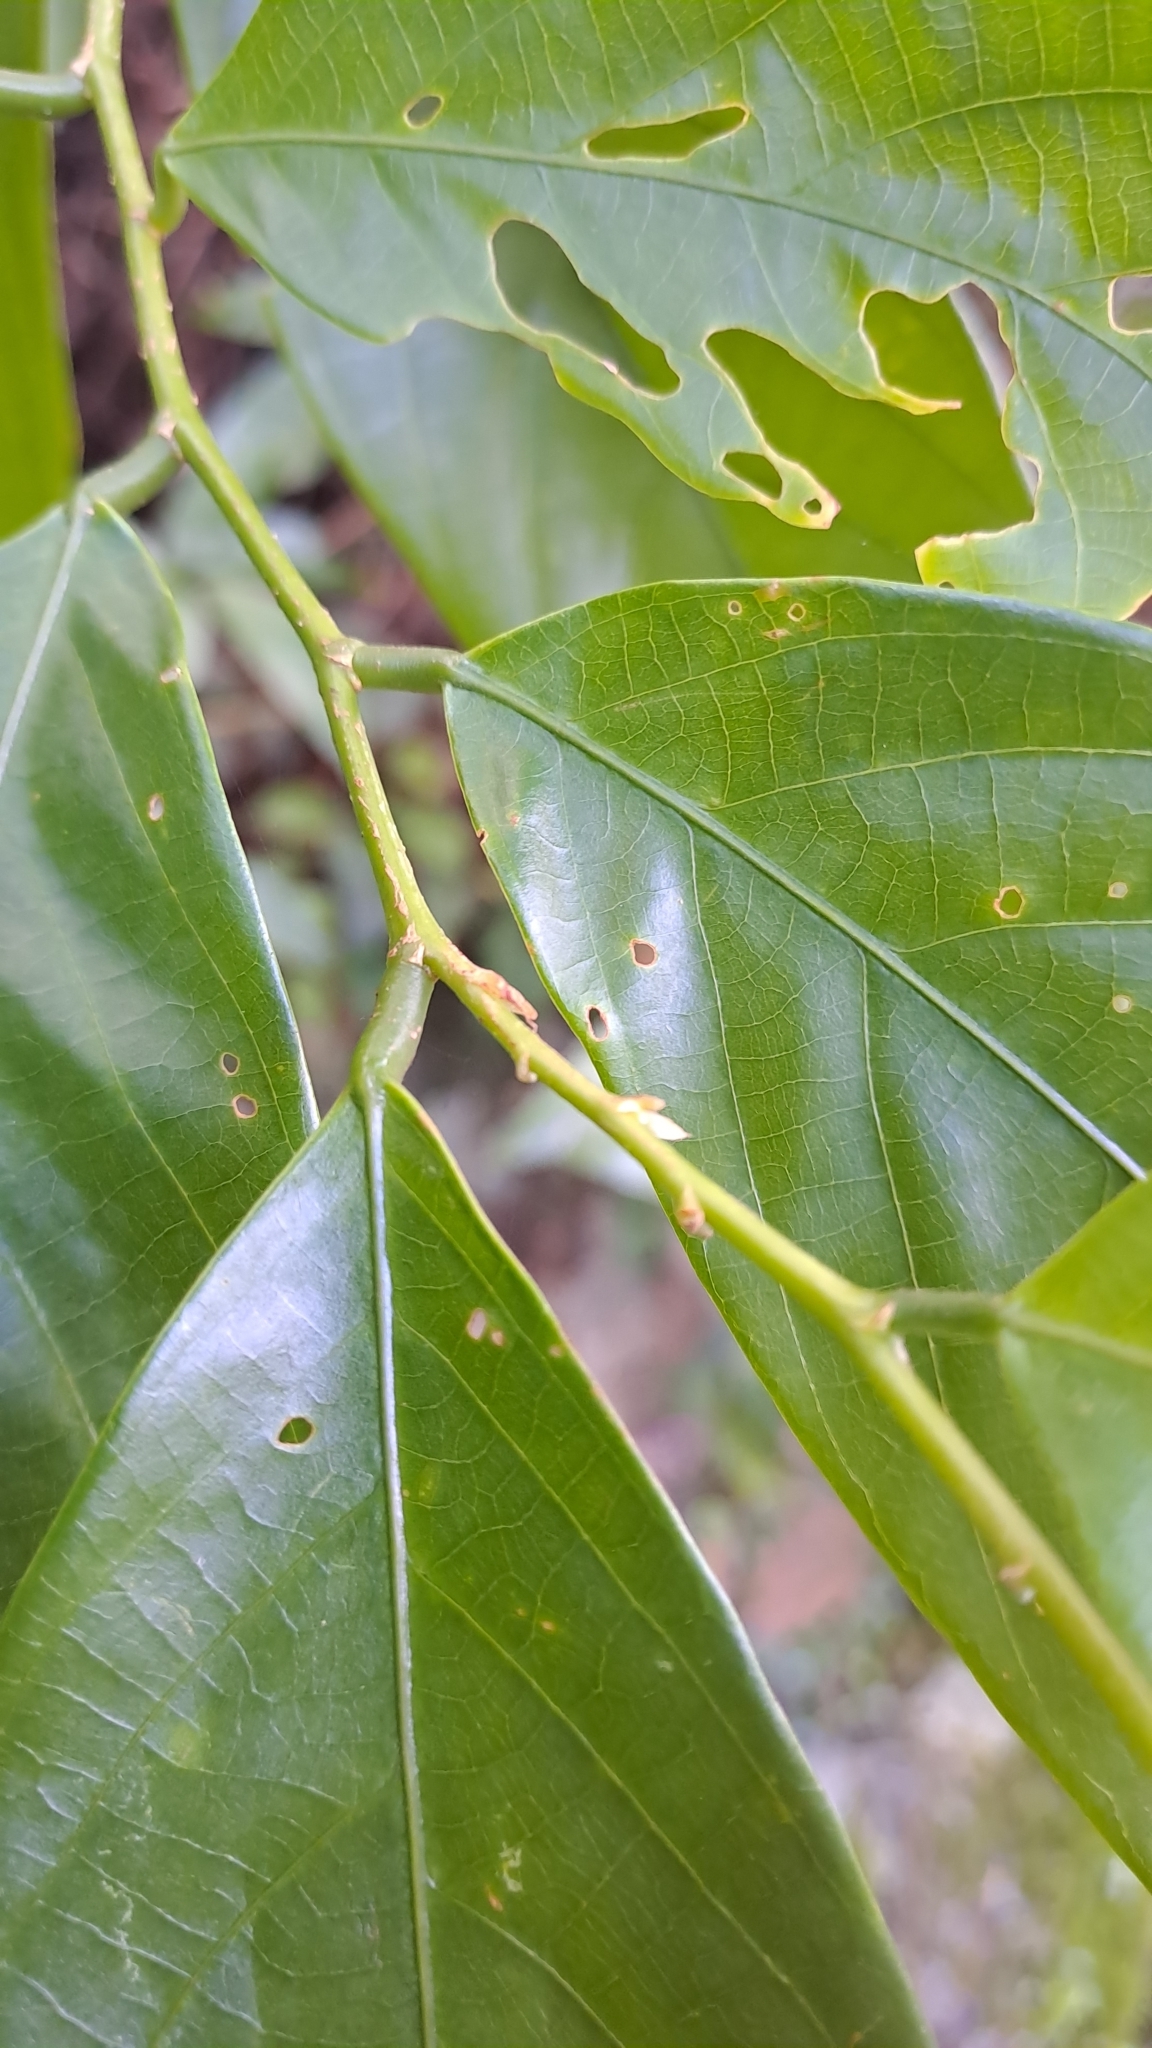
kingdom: Plantae
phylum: Tracheophyta
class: Magnoliopsida
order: Malpighiales
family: Phyllanthaceae
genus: Bridelia
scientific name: Bridelia insulana
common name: Grey-birch
